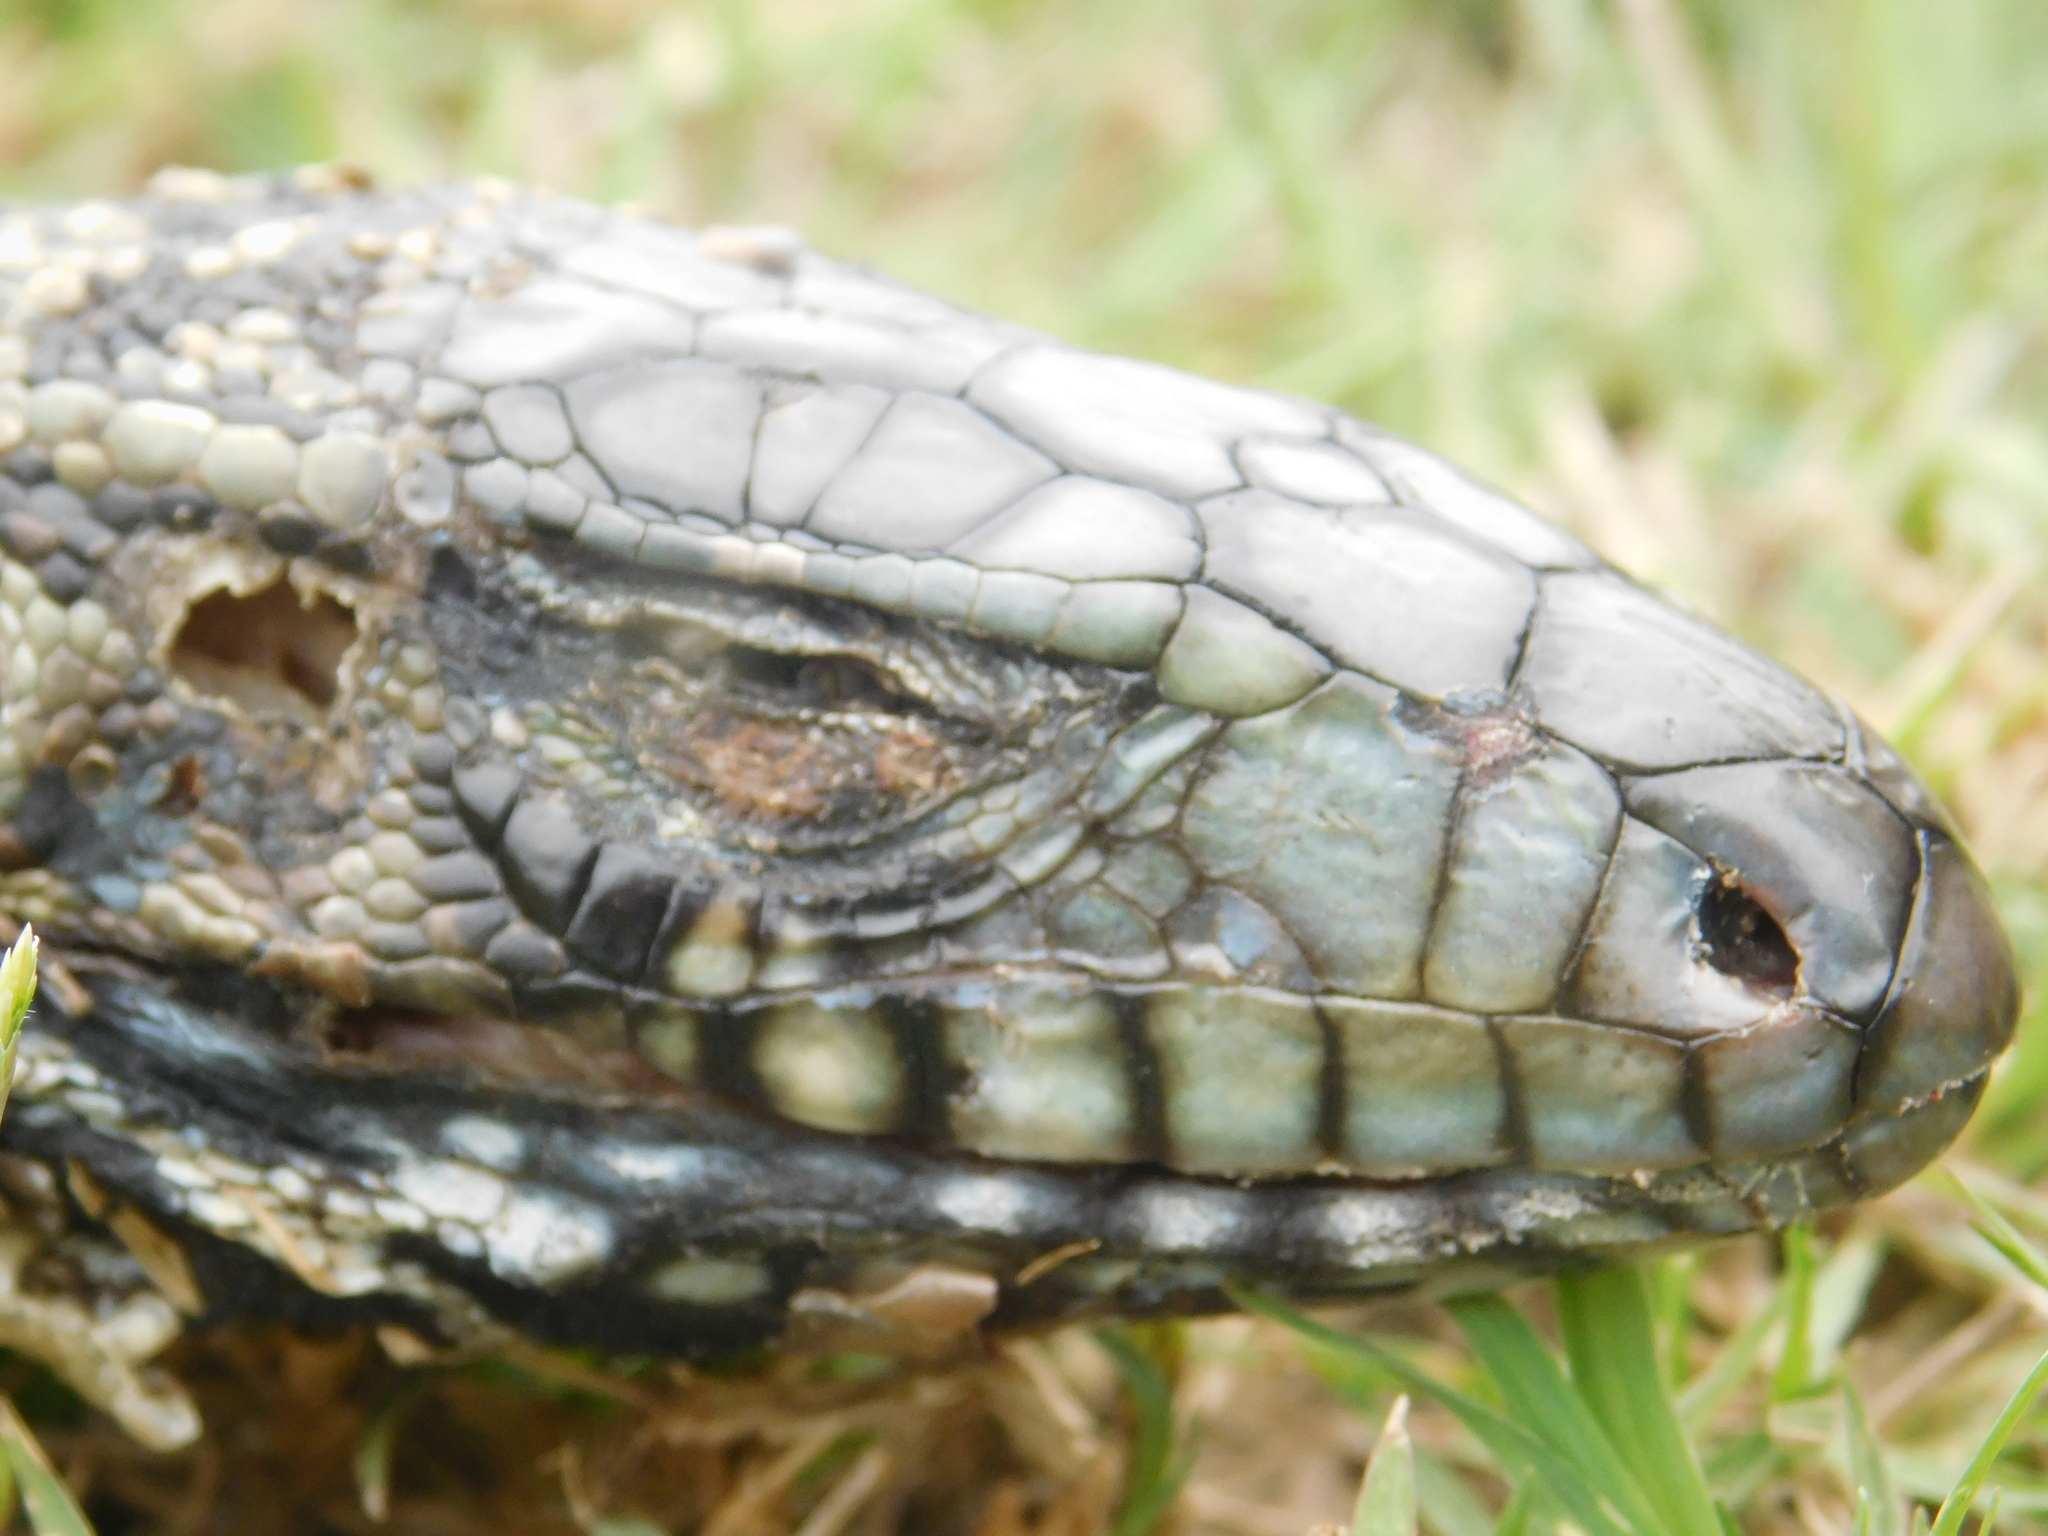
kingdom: Animalia
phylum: Chordata
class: Squamata
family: Teiidae
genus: Salvator
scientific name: Salvator merianae
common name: Argentine black and white tegu
